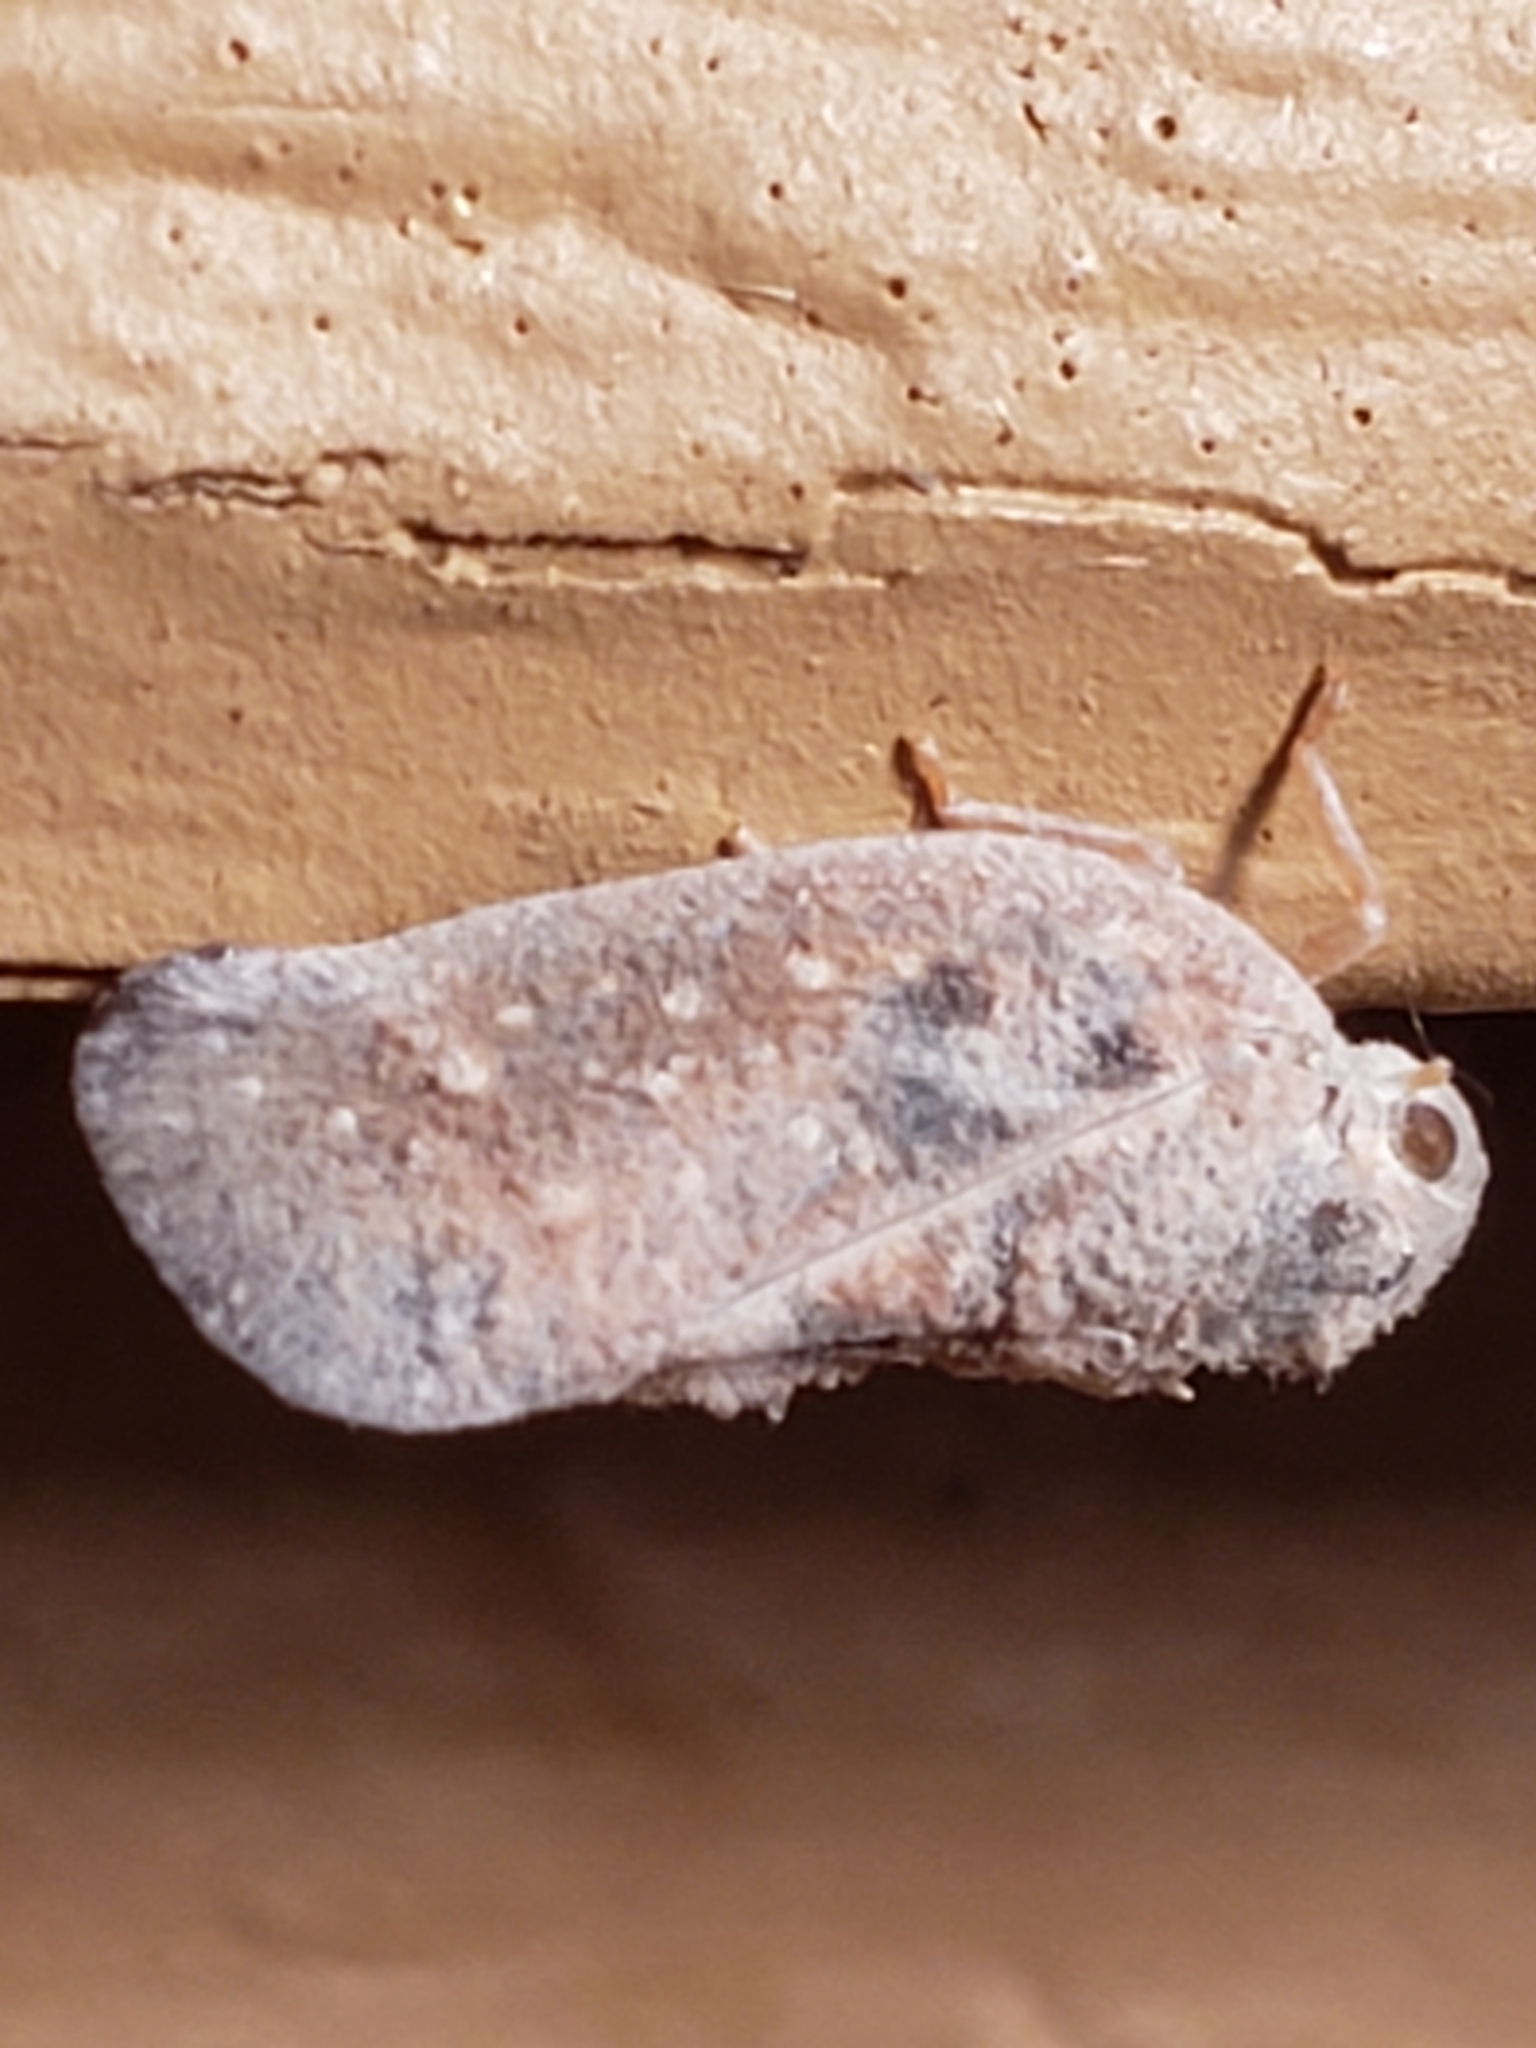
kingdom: Animalia
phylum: Arthropoda
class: Insecta
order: Hemiptera
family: Flatidae
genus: Metcalfa
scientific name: Metcalfa pruinosa
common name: Citrus flatid planthopper
